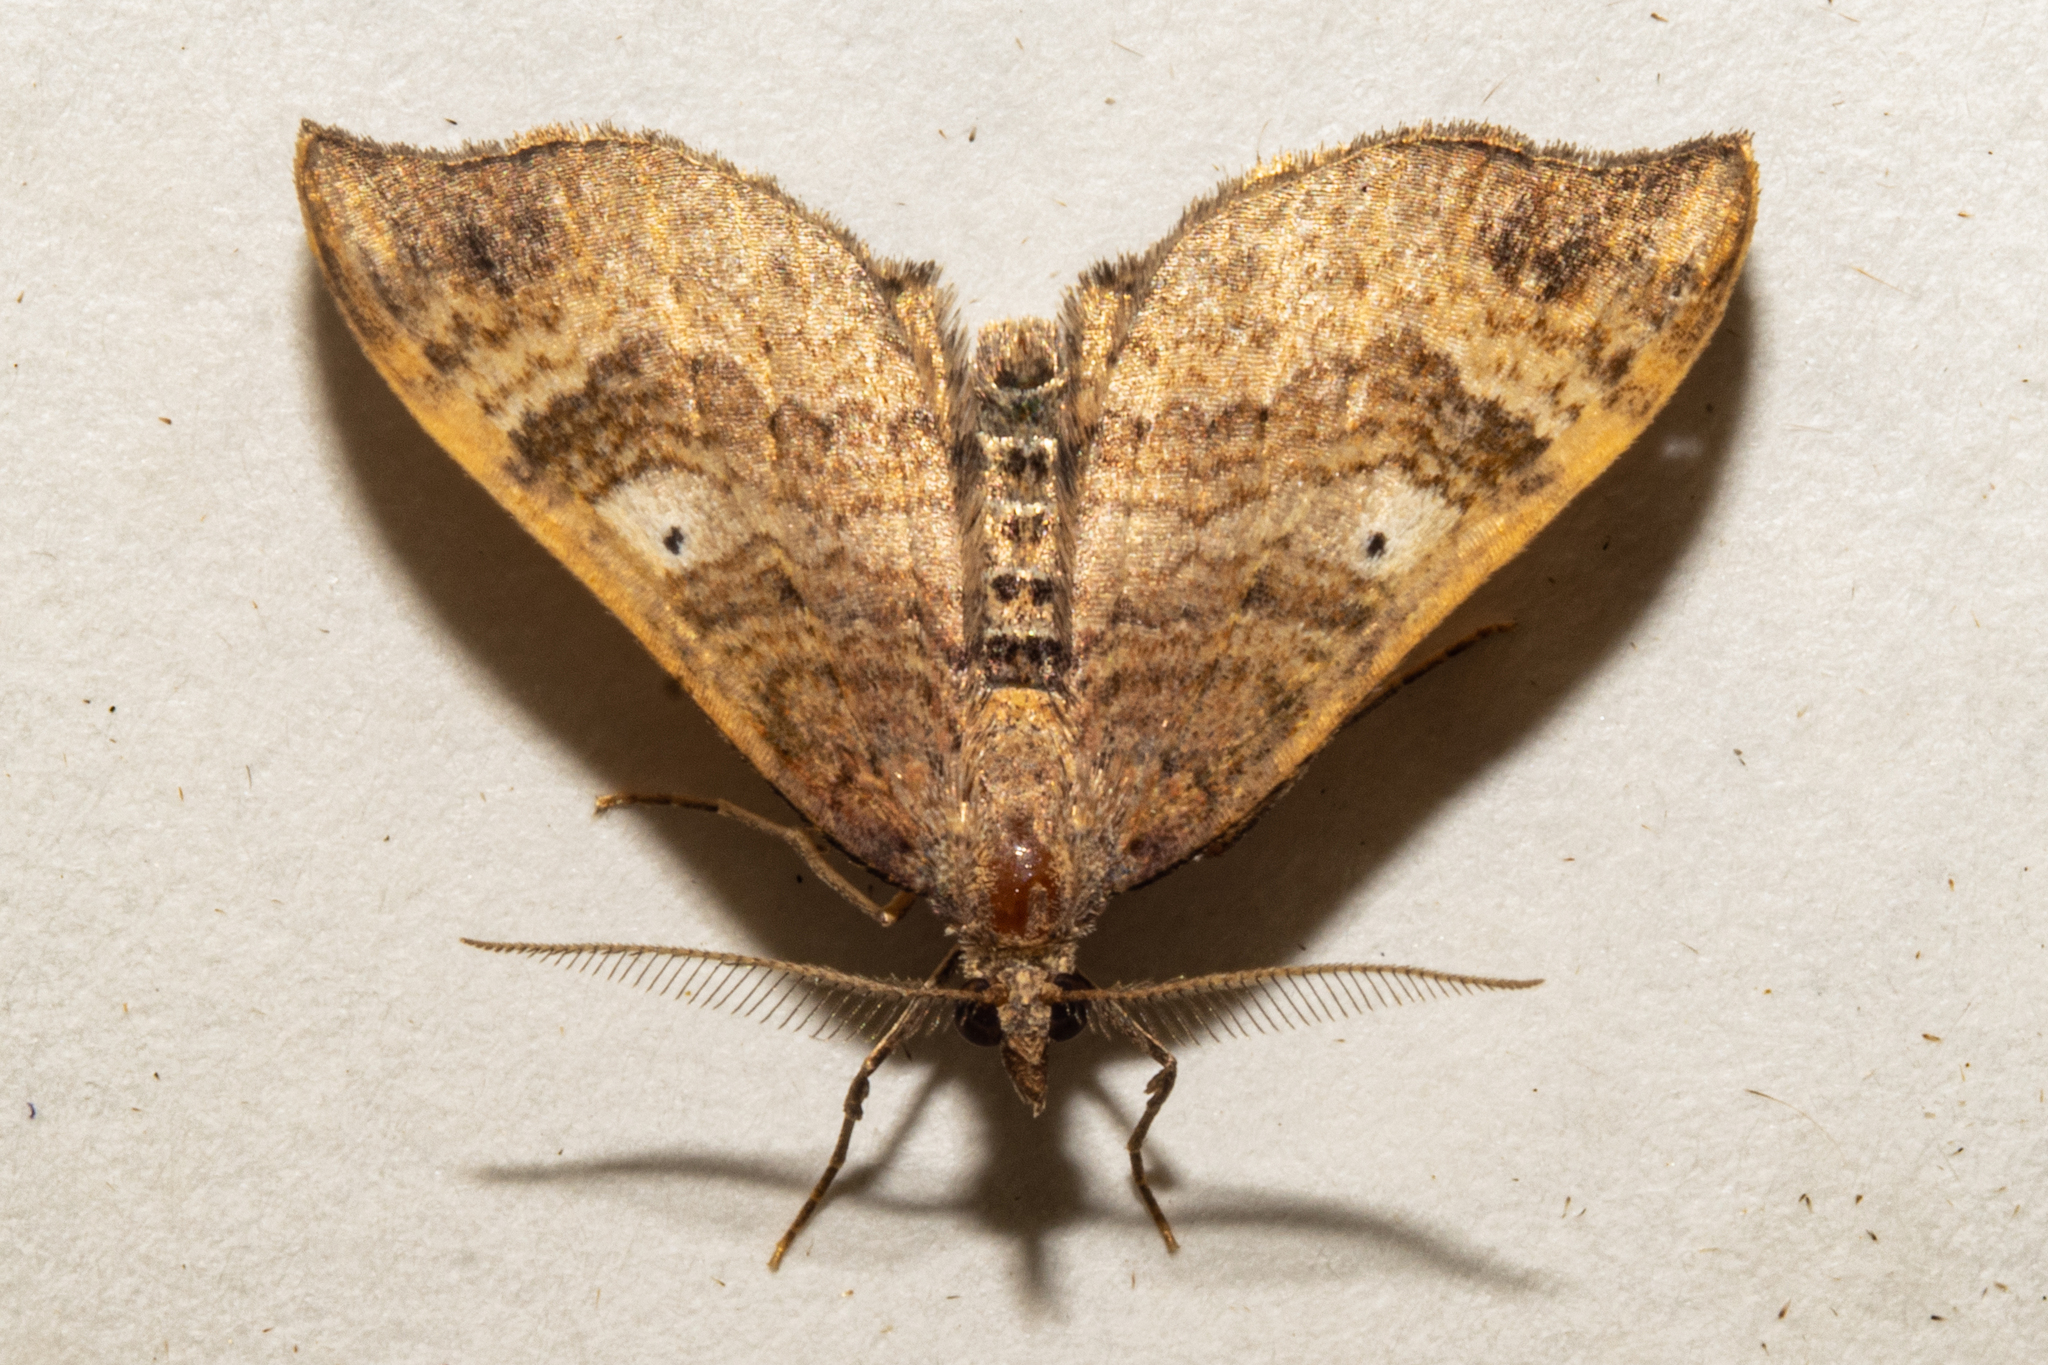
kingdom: Animalia
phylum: Arthropoda
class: Insecta
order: Lepidoptera
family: Geometridae
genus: Homodotis
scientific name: Homodotis falcata
